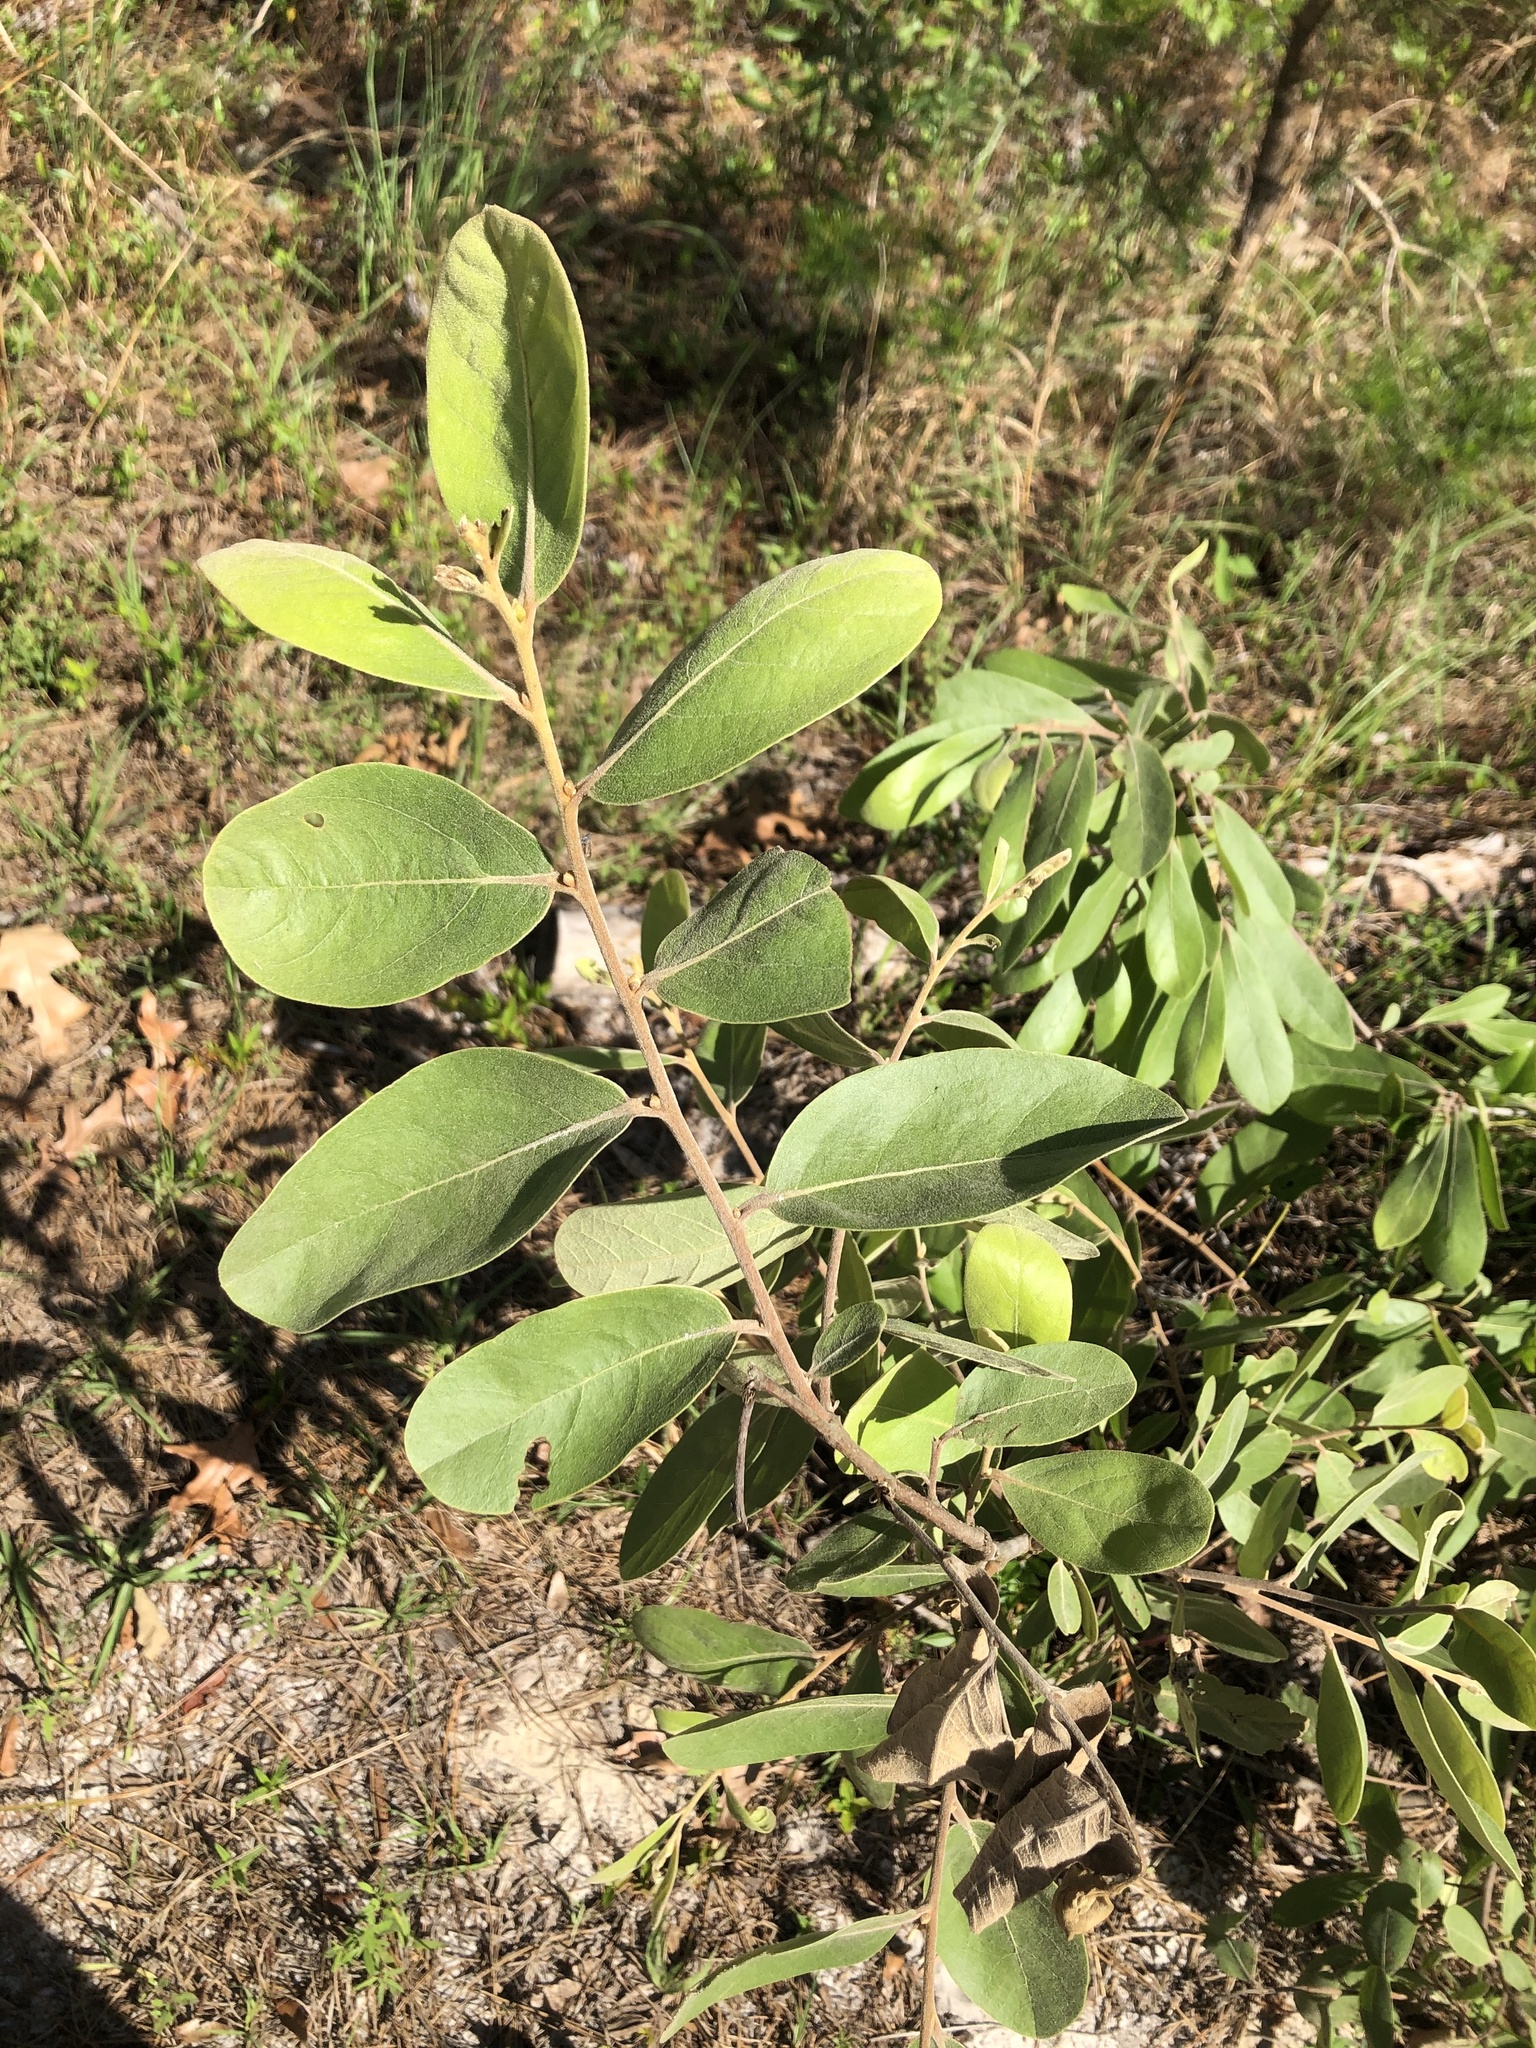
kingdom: Plantae
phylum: Tracheophyta
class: Magnoliopsida
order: Magnoliales
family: Annonaceae
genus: Asimina
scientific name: Asimina speciosa
